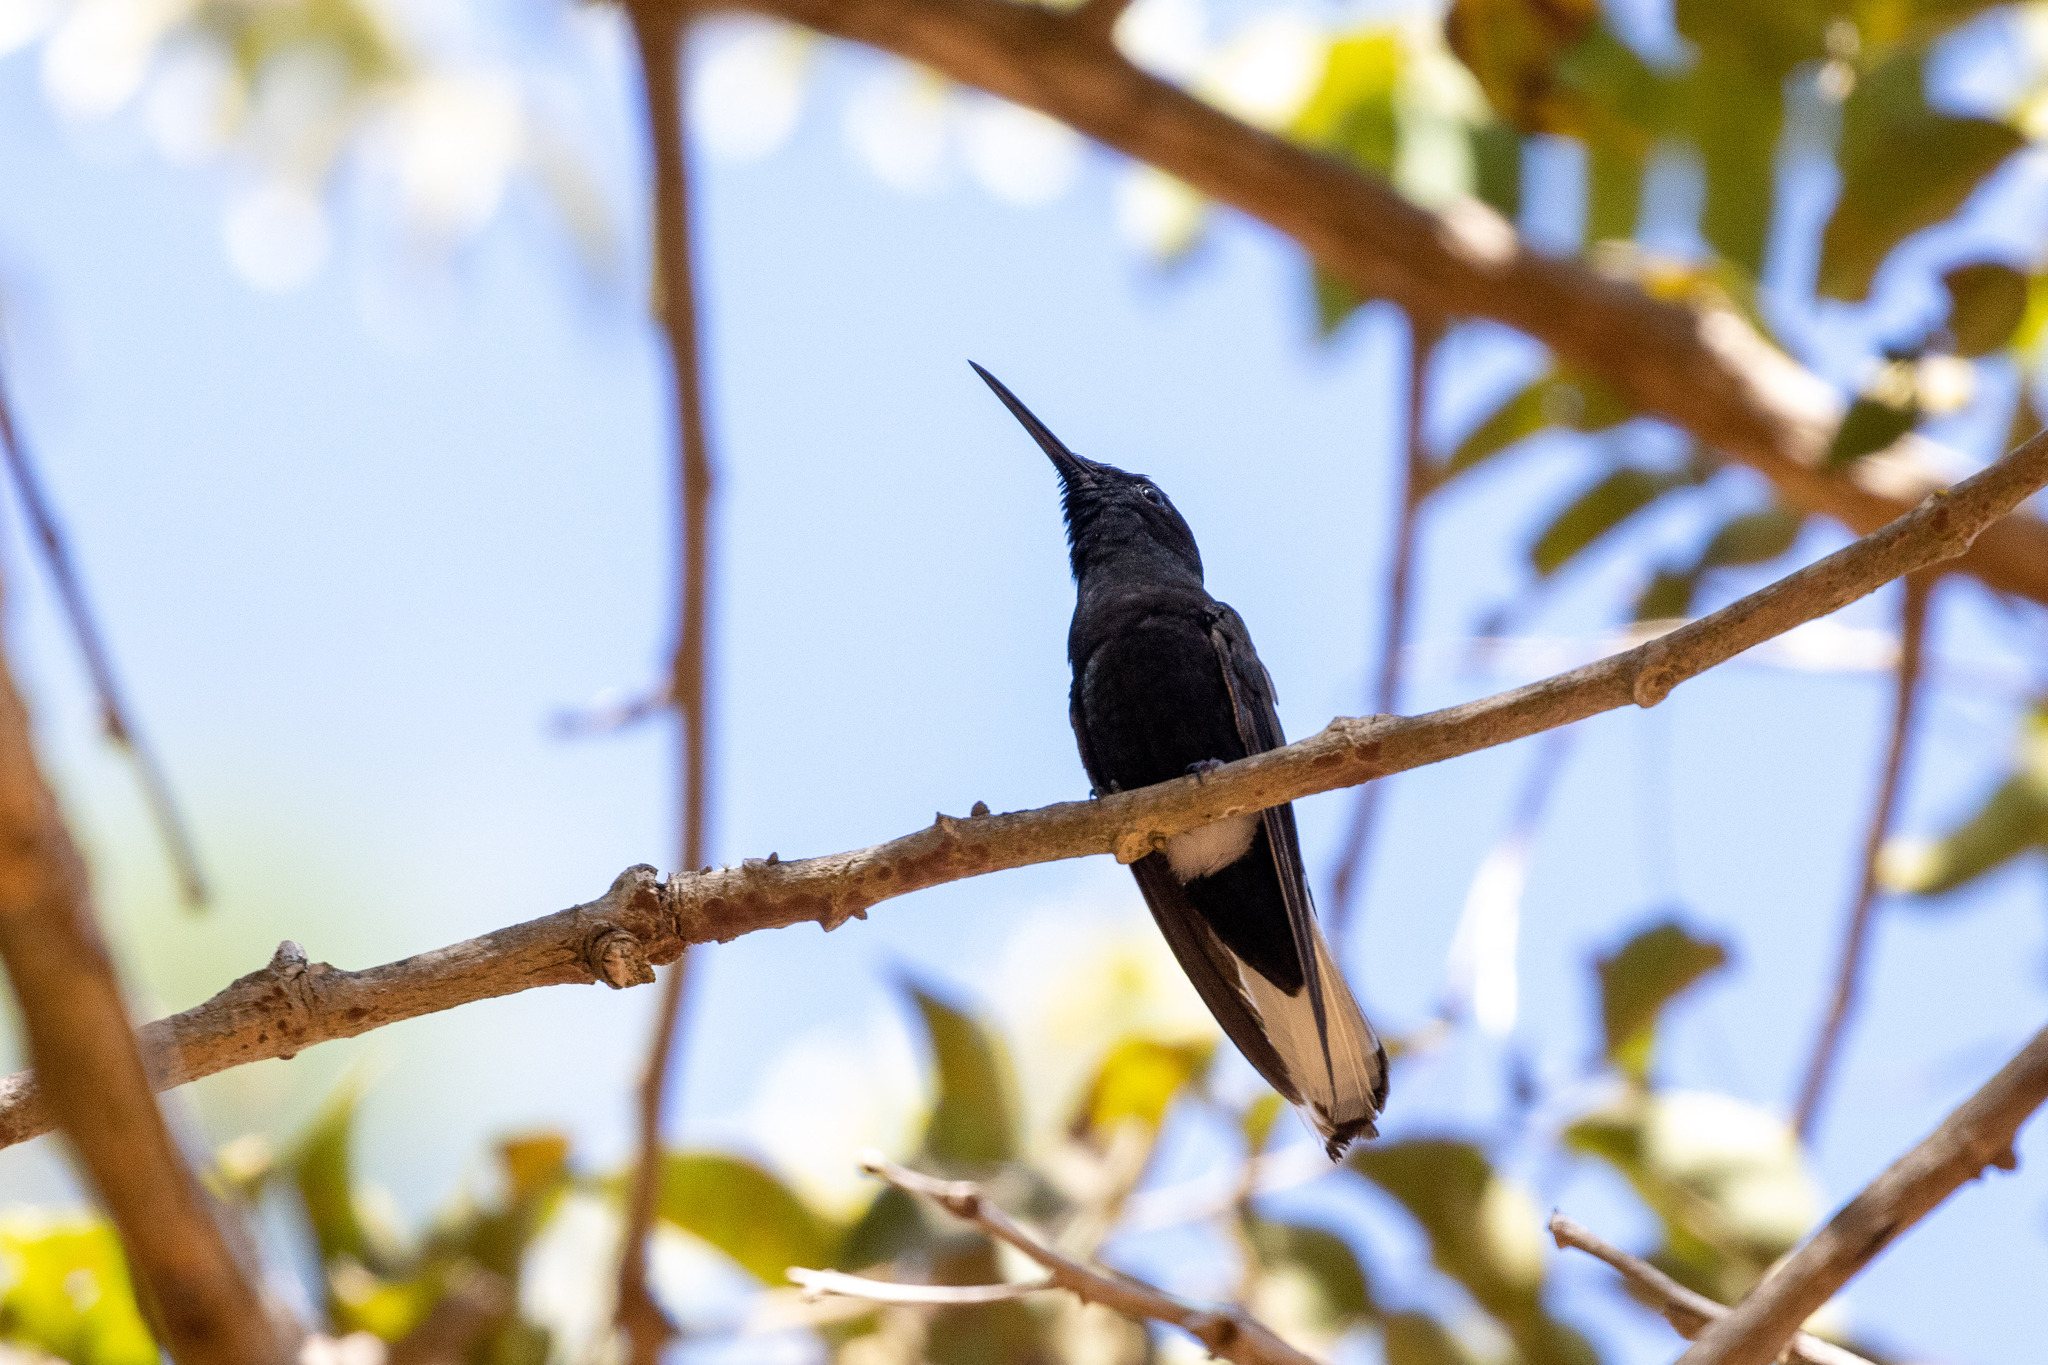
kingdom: Animalia
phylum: Chordata
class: Aves
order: Apodiformes
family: Trochilidae
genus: Florisuga
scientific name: Florisuga fusca
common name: Black jacobin
